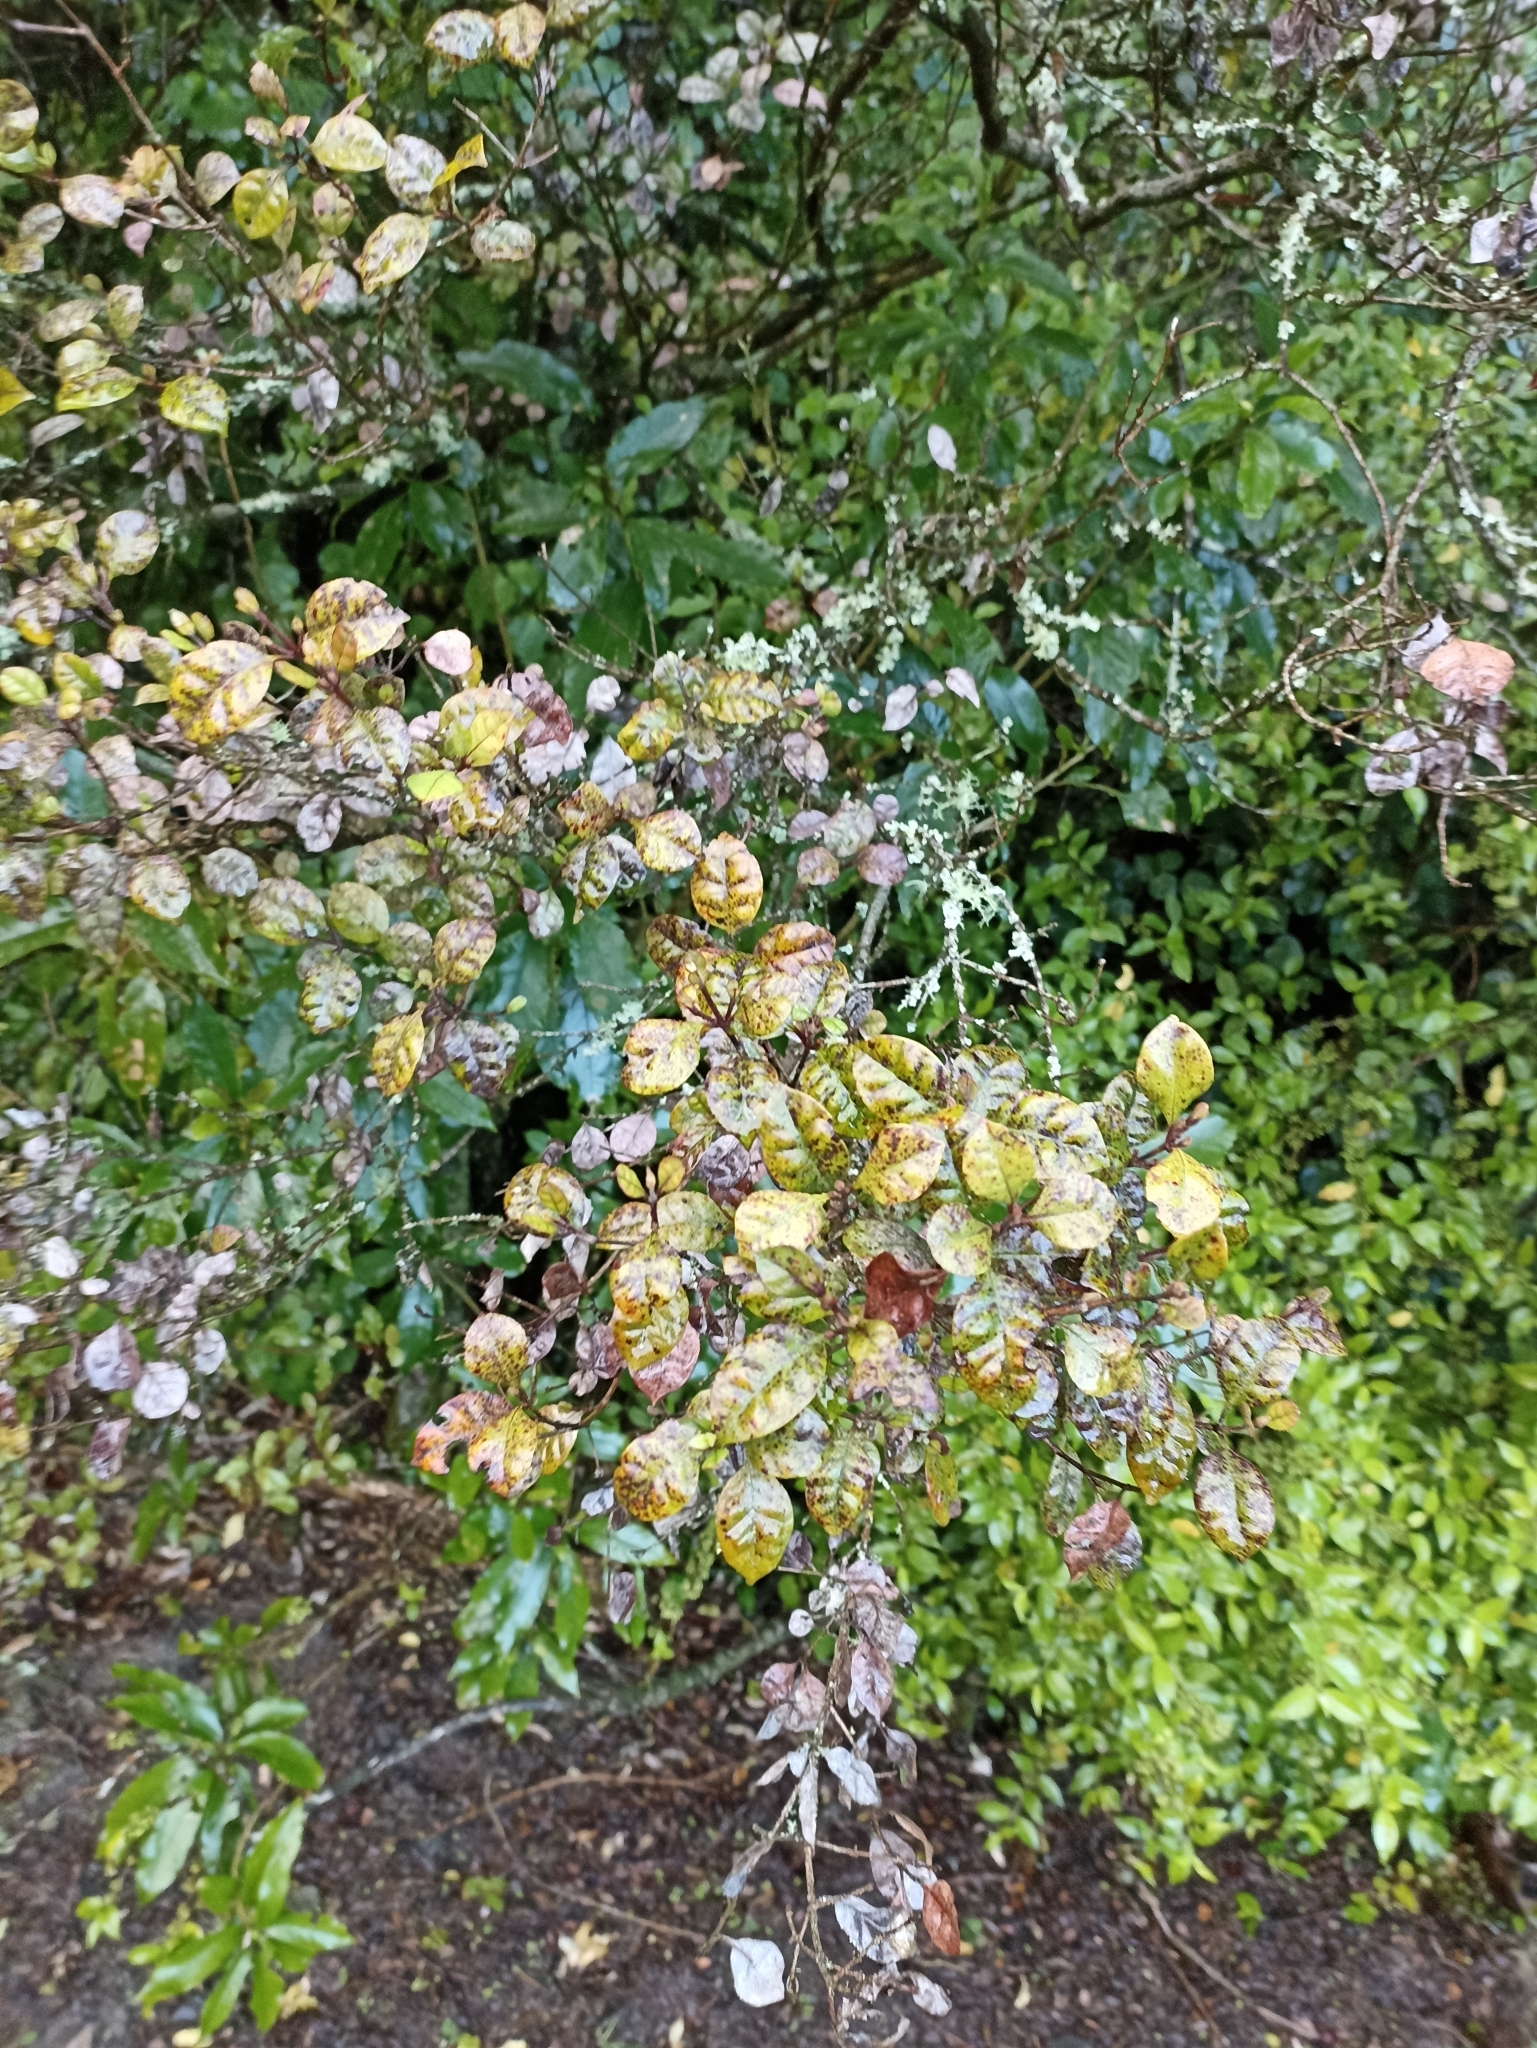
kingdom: Plantae
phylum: Tracheophyta
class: Magnoliopsida
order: Myrtales
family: Myrtaceae
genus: Lophomyrtus
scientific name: Lophomyrtus bullata
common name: Rama rama
